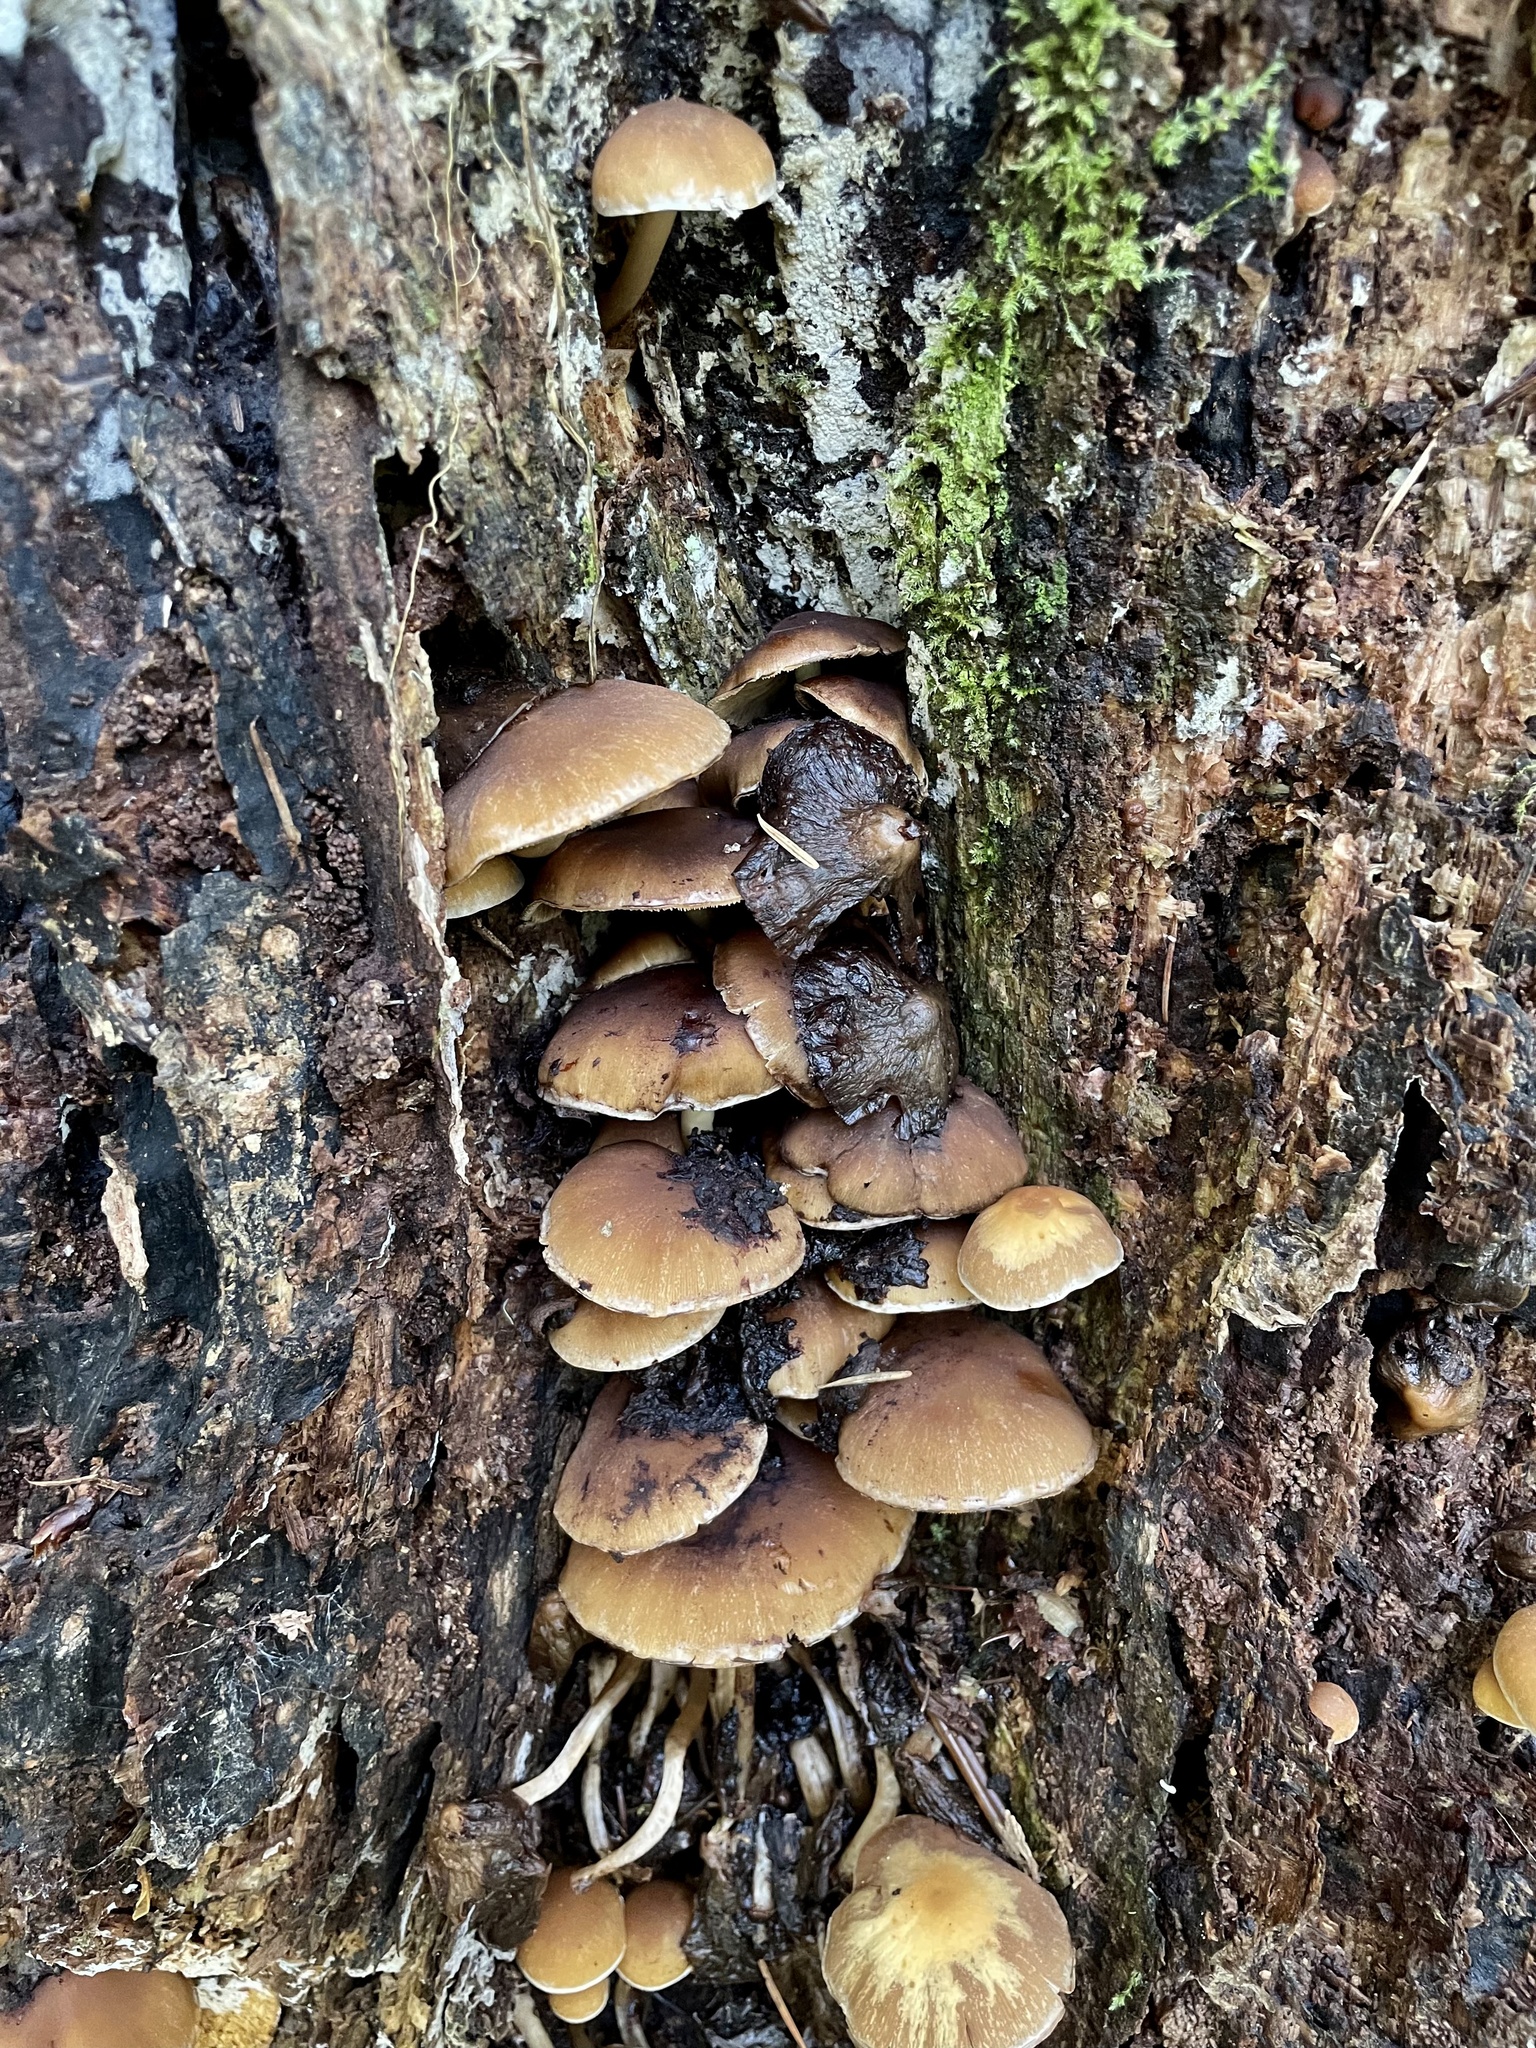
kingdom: Fungi
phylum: Basidiomycota
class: Agaricomycetes
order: Agaricales
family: Psathyrellaceae
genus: Psathyrella
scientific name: Psathyrella piluliformis
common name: Common stump brittlestem
